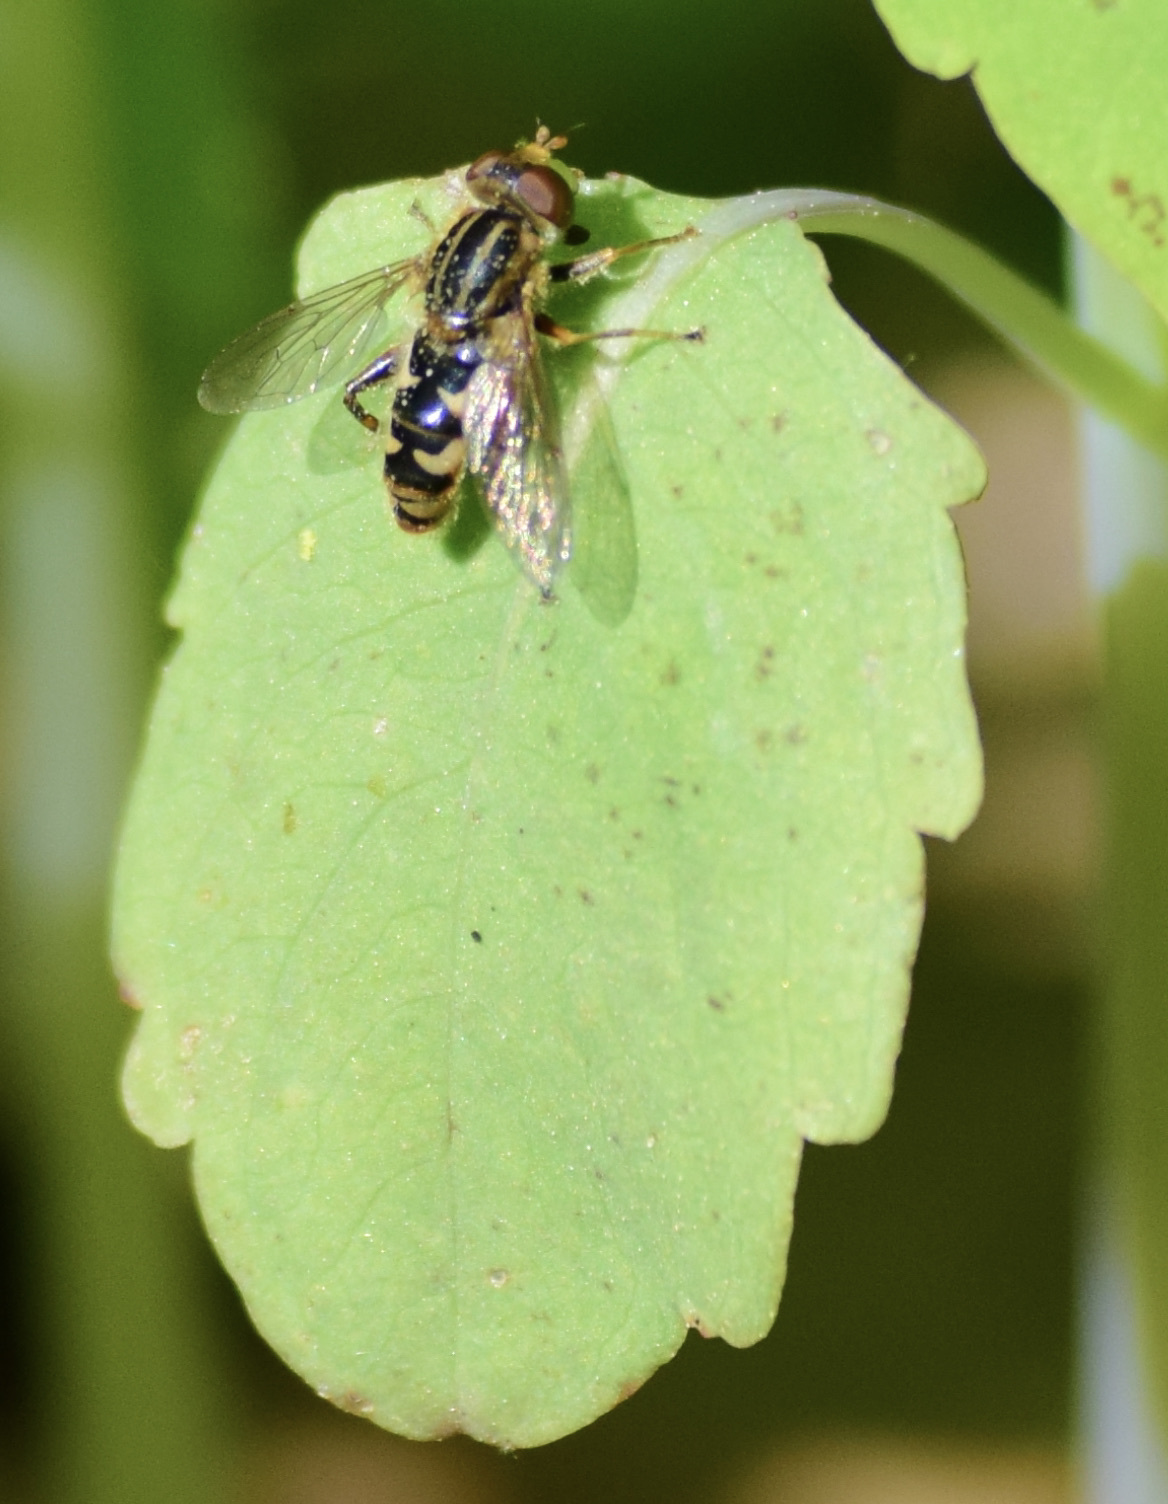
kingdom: Animalia
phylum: Arthropoda
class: Insecta
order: Diptera
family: Syrphidae
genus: Anasimyia
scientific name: Anasimyia
